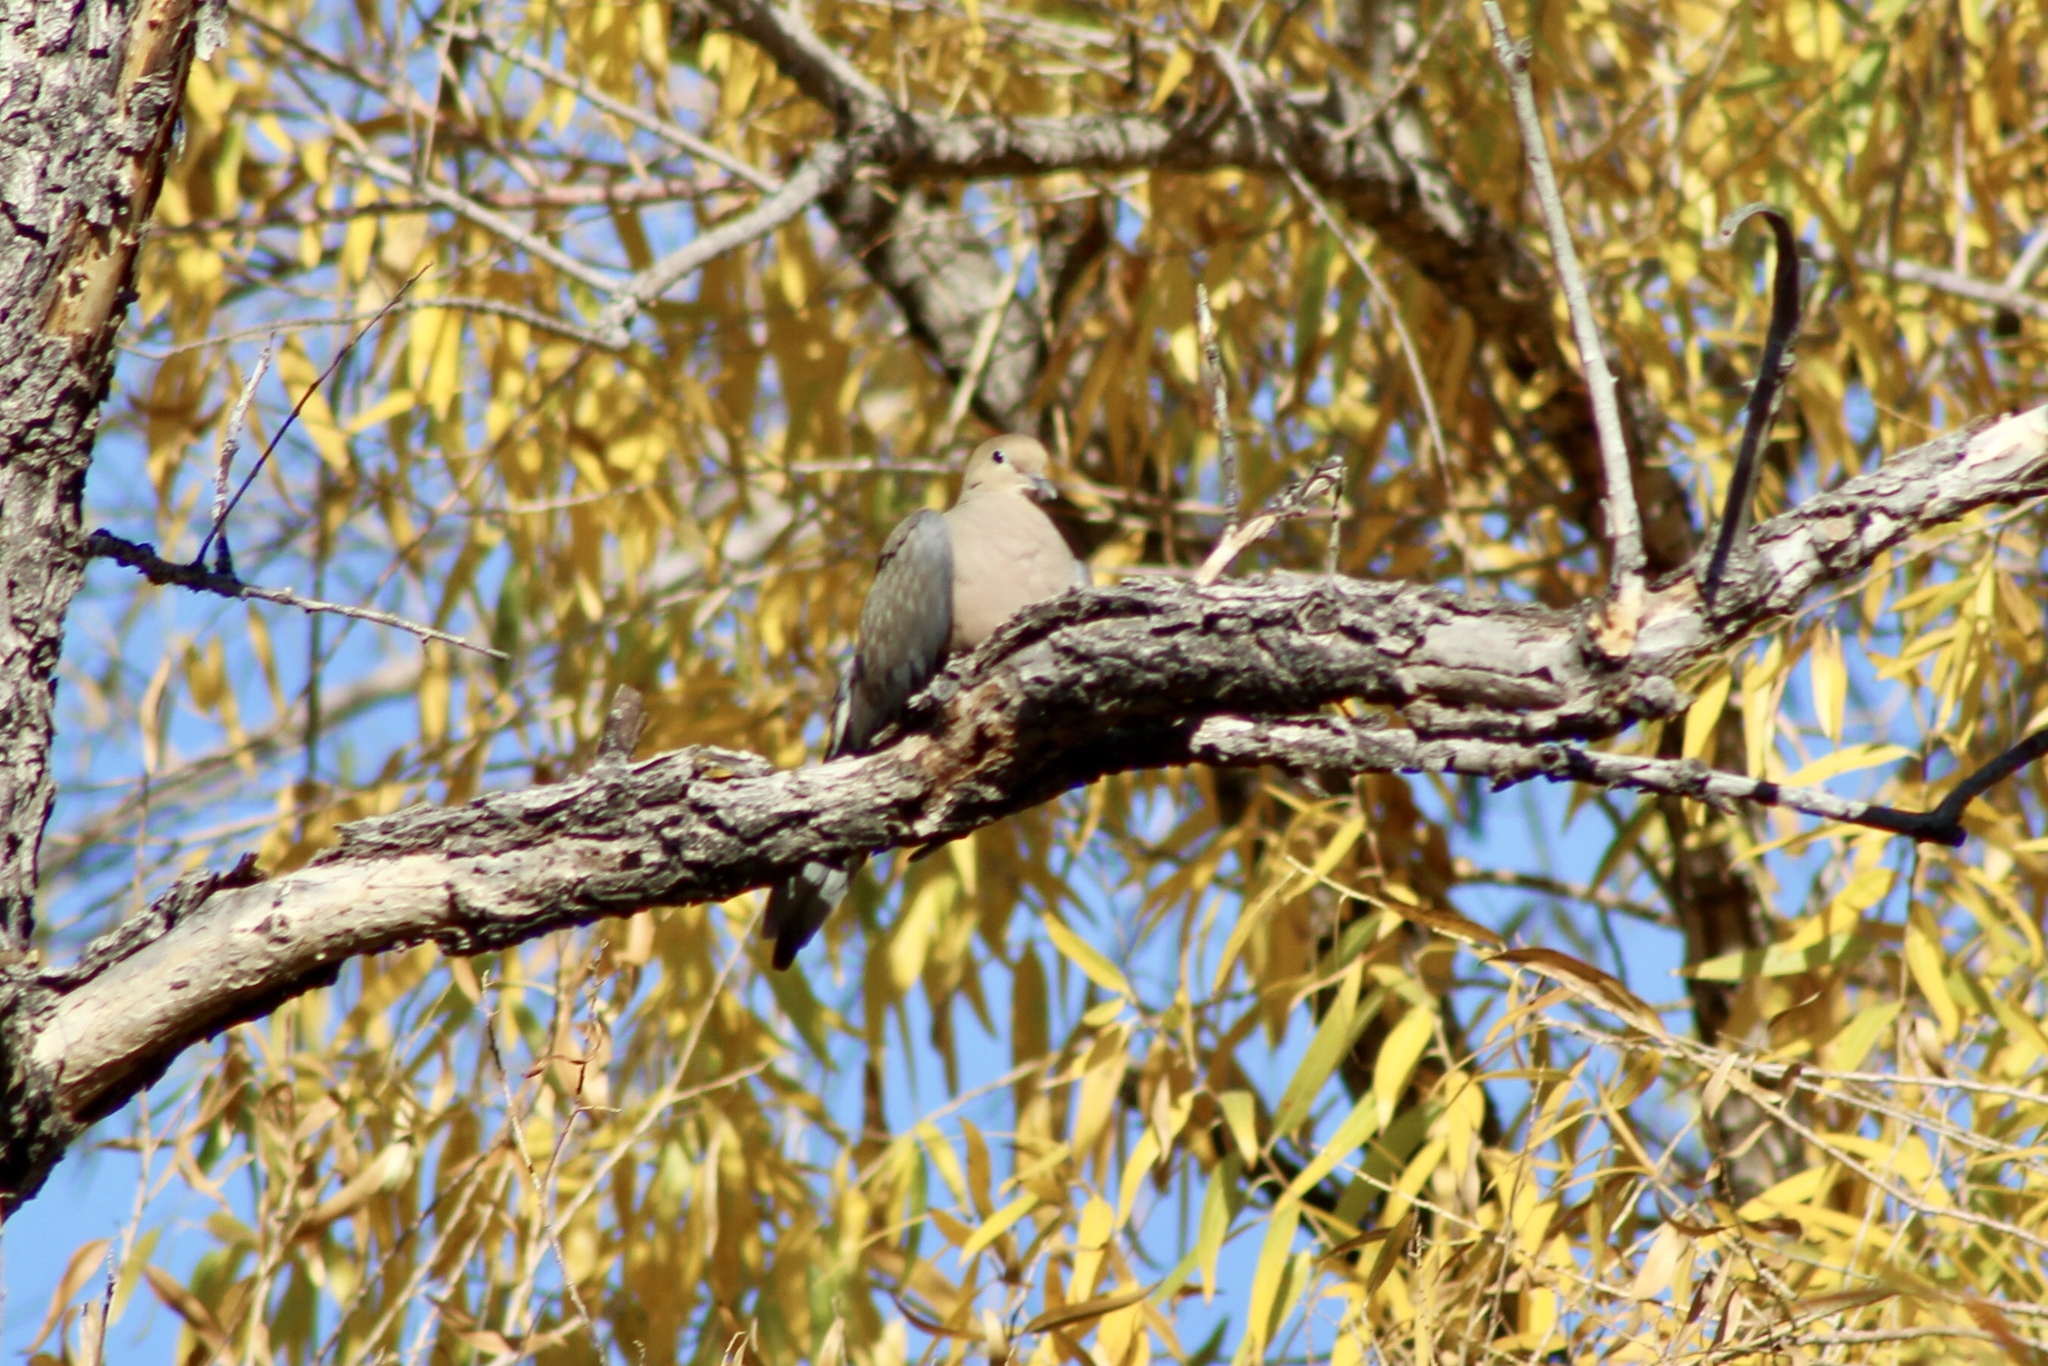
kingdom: Animalia
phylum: Chordata
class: Aves
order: Columbiformes
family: Columbidae
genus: Zenaida
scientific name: Zenaida macroura
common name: Mourning dove
